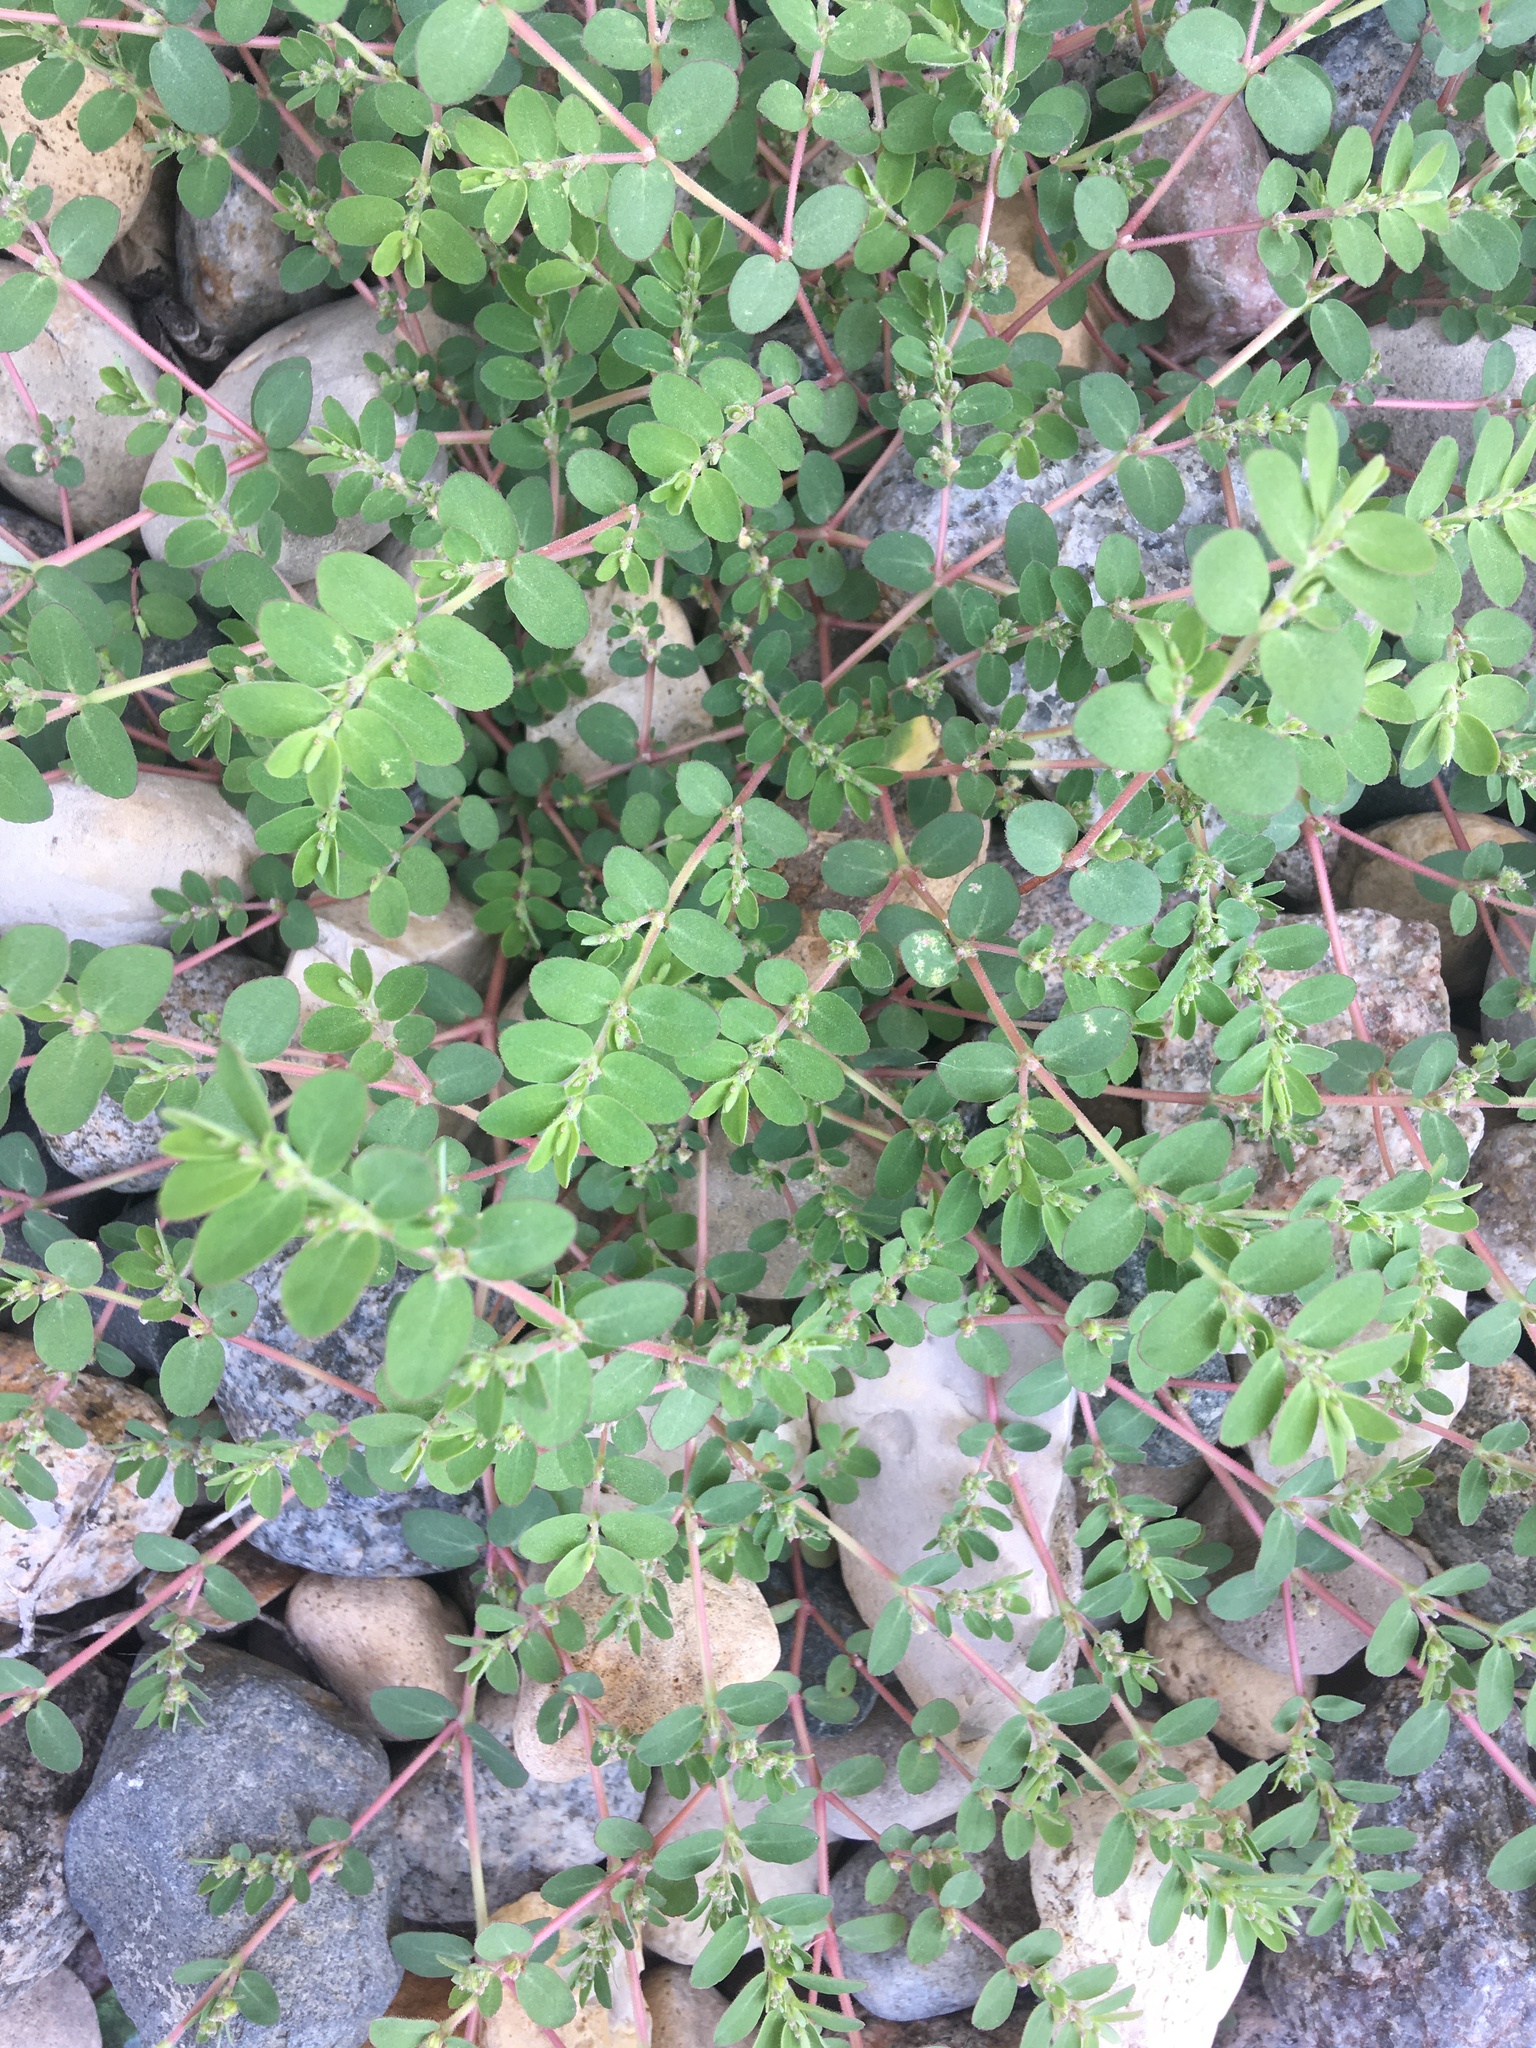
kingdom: Plantae
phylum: Tracheophyta
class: Magnoliopsida
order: Malpighiales
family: Euphorbiaceae
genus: Euphorbia
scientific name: Euphorbia prostrata
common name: Prostrate sandmat
